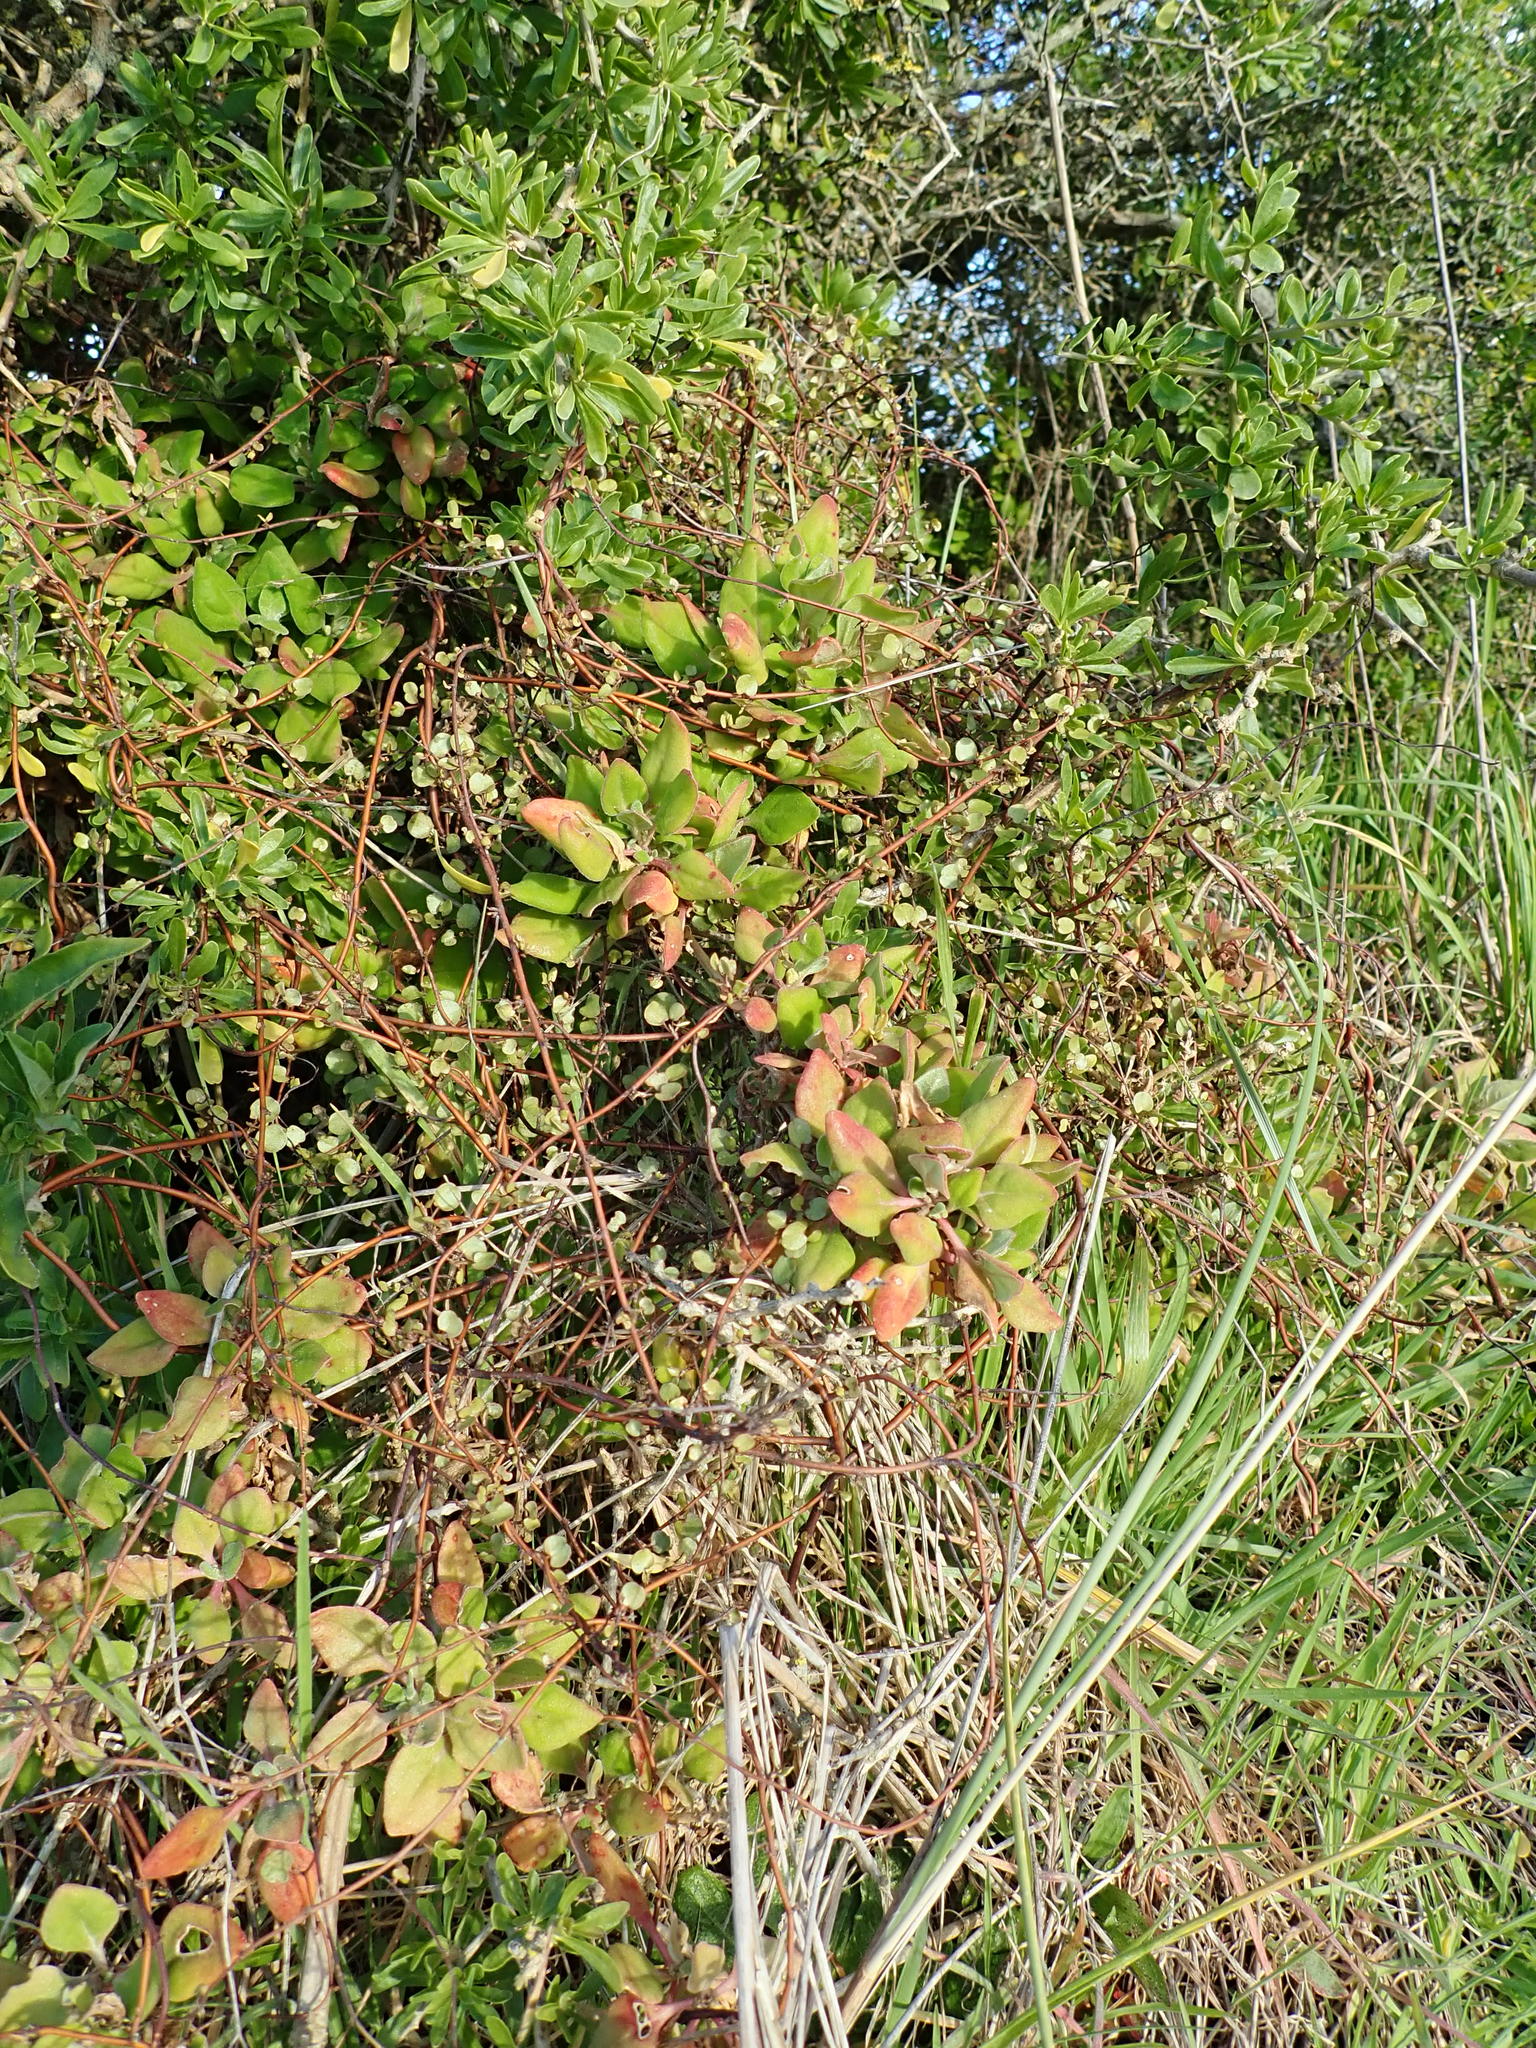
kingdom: Plantae
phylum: Tracheophyta
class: Magnoliopsida
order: Caryophyllales
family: Aizoaceae
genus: Tetragonia
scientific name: Tetragonia implexicoma
